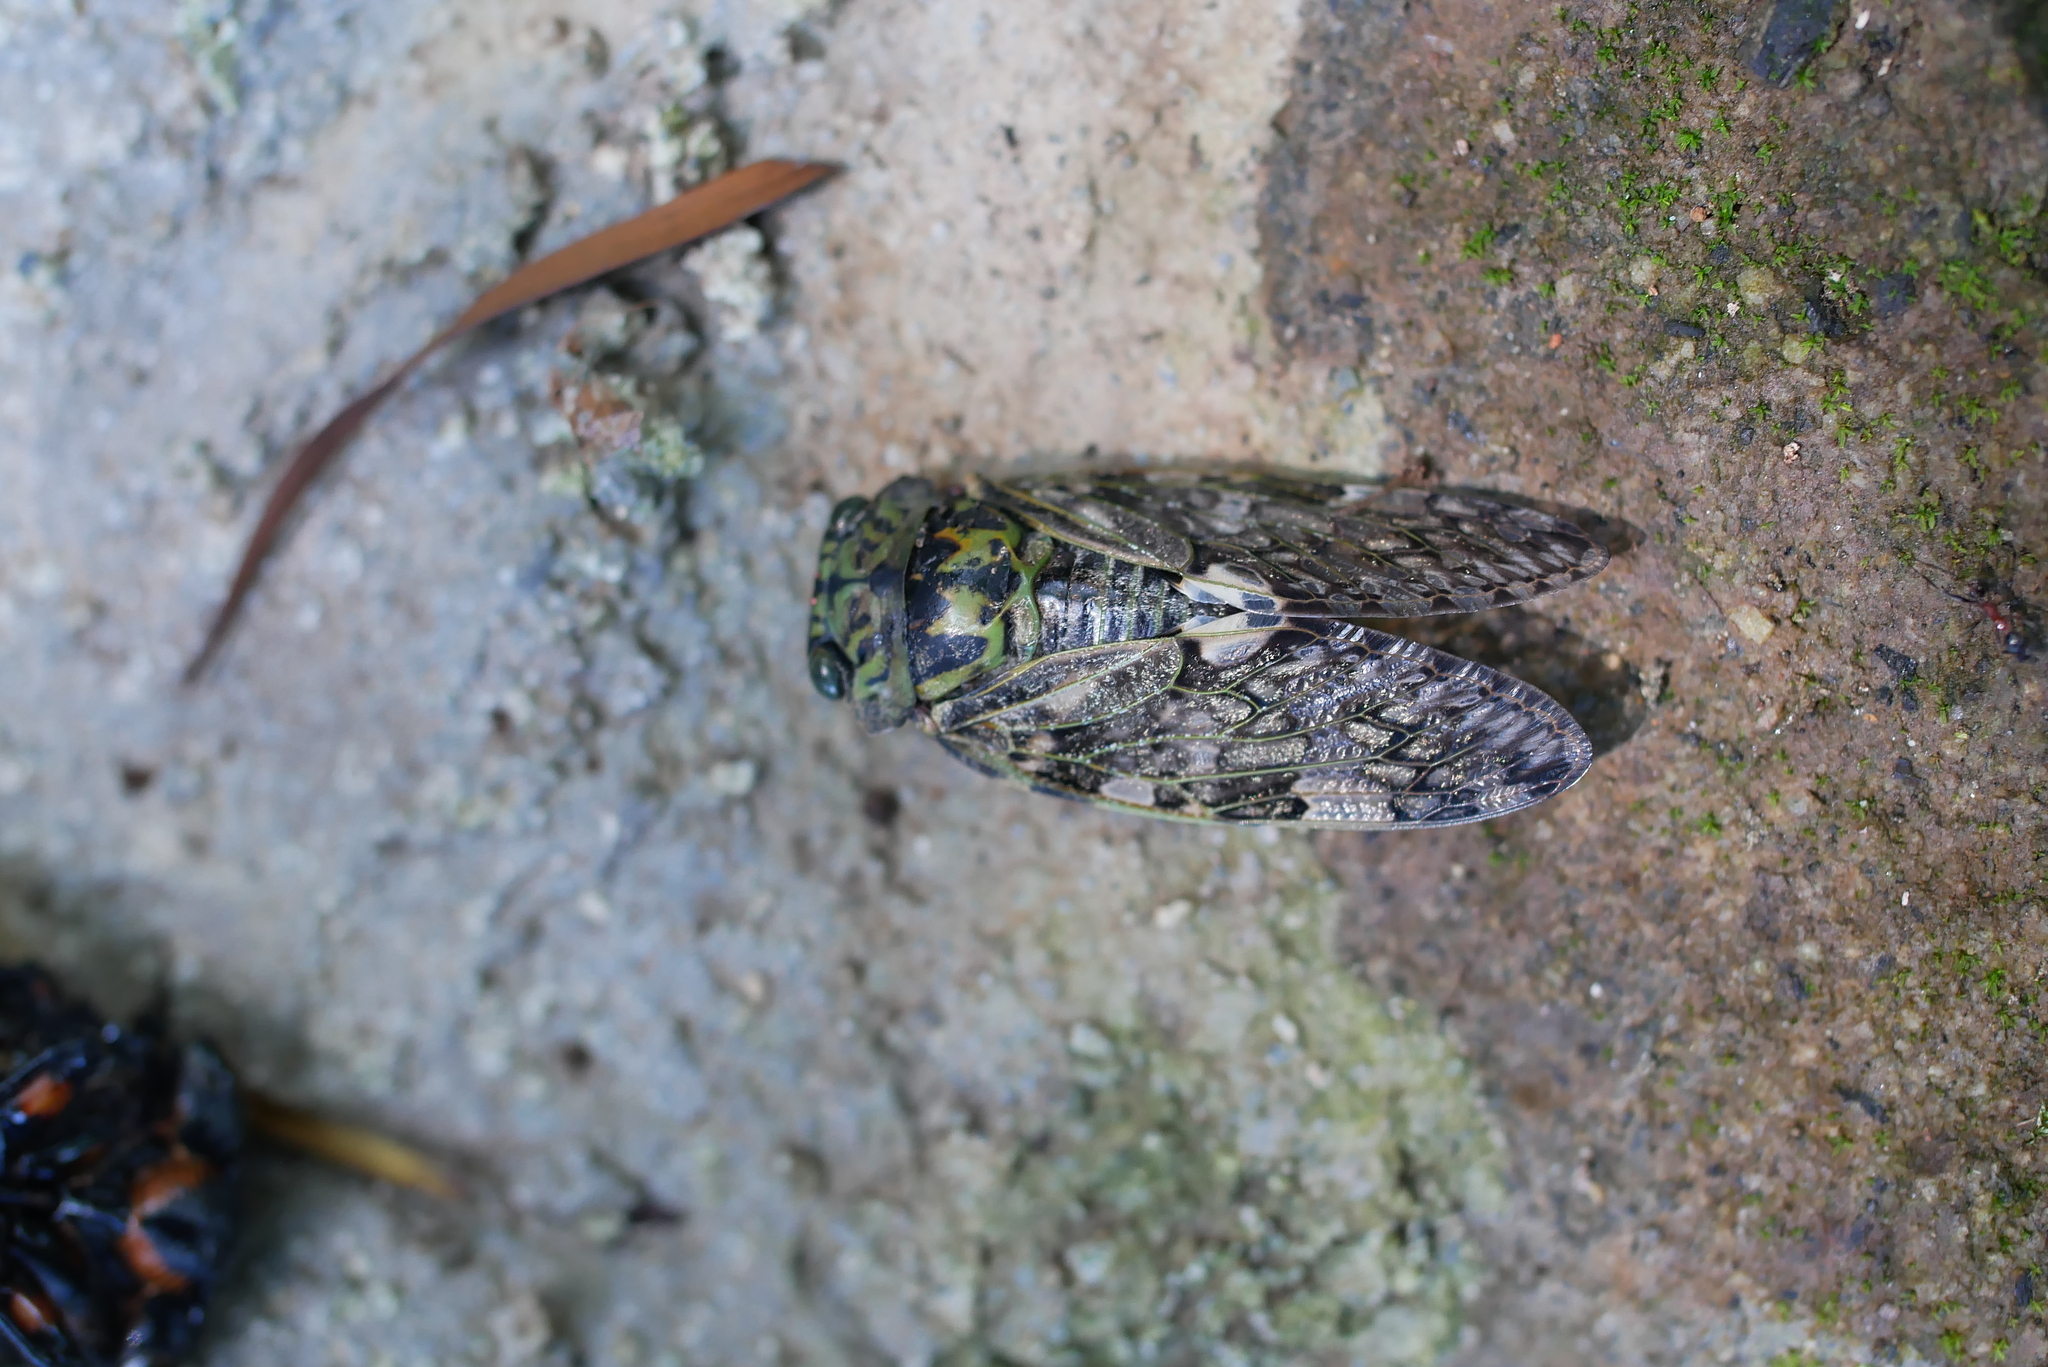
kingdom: Animalia
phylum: Arthropoda
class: Insecta
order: Hemiptera
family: Cicadidae
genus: Platypleura
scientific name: Platypleura kaempferi
